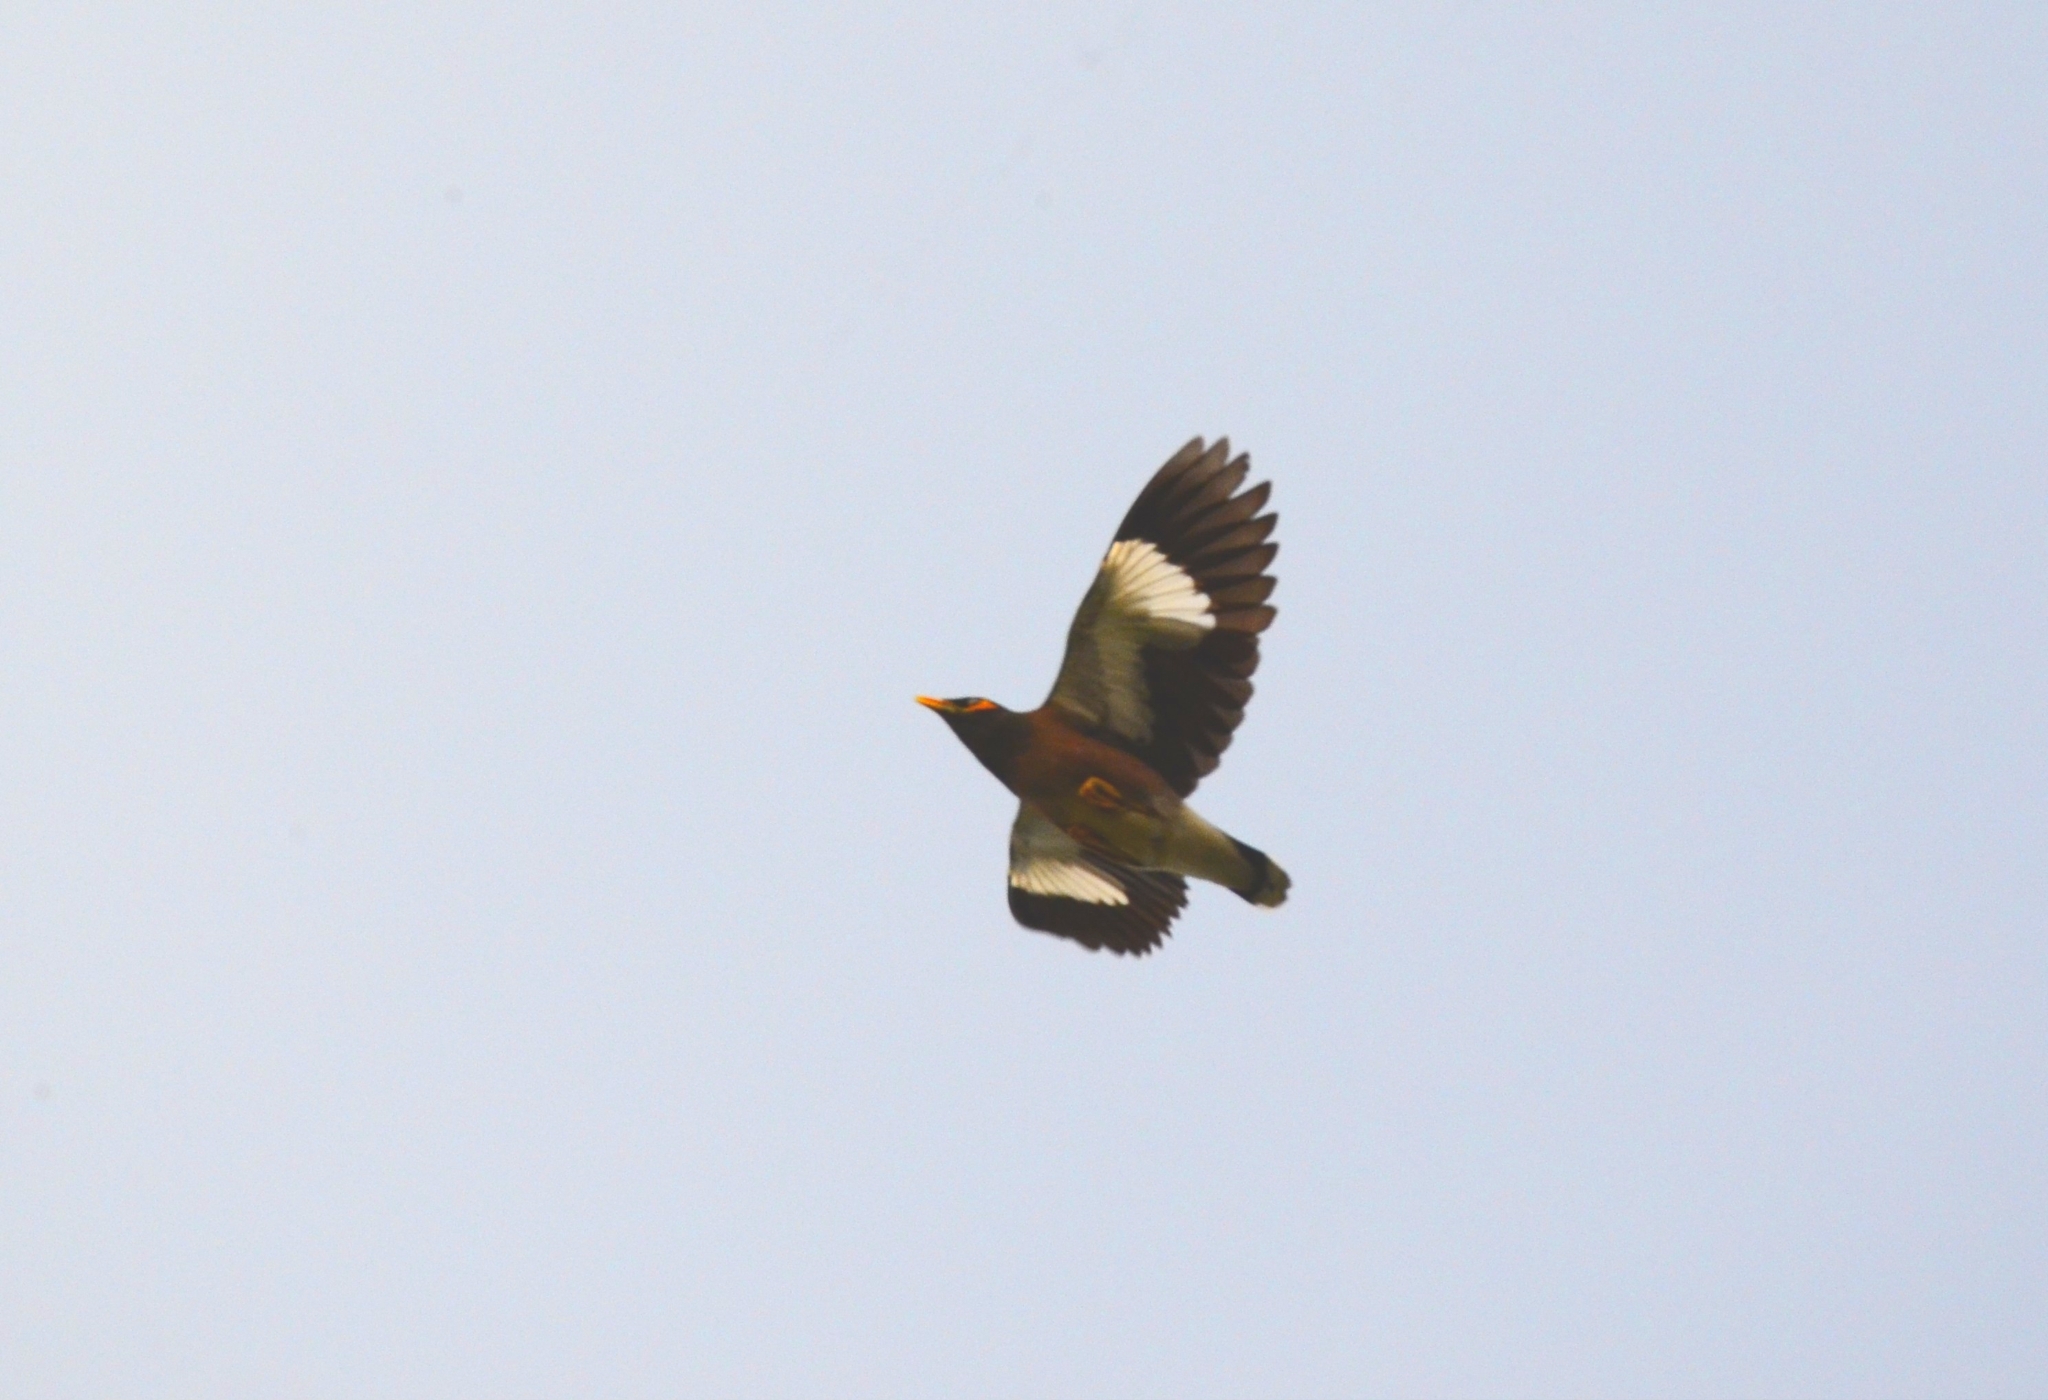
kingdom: Animalia
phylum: Chordata
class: Aves
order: Passeriformes
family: Sturnidae
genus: Acridotheres
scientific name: Acridotheres tristis
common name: Common myna
